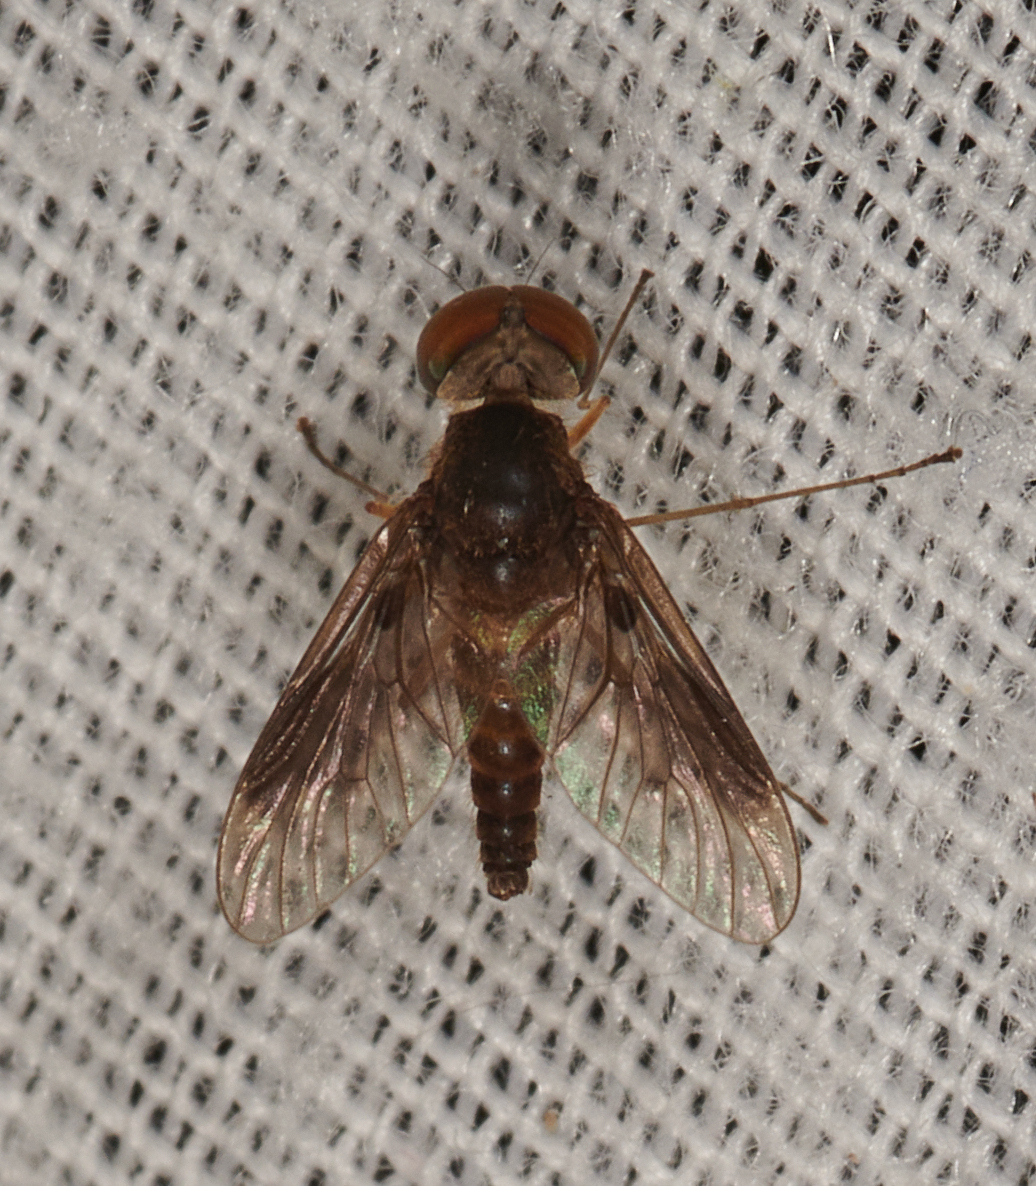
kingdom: Animalia
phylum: Arthropoda
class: Insecta
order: Diptera
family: Rhagionidae
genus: Chrysopilus
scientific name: Chrysopilus quadratus
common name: Quadrate snipe fly
